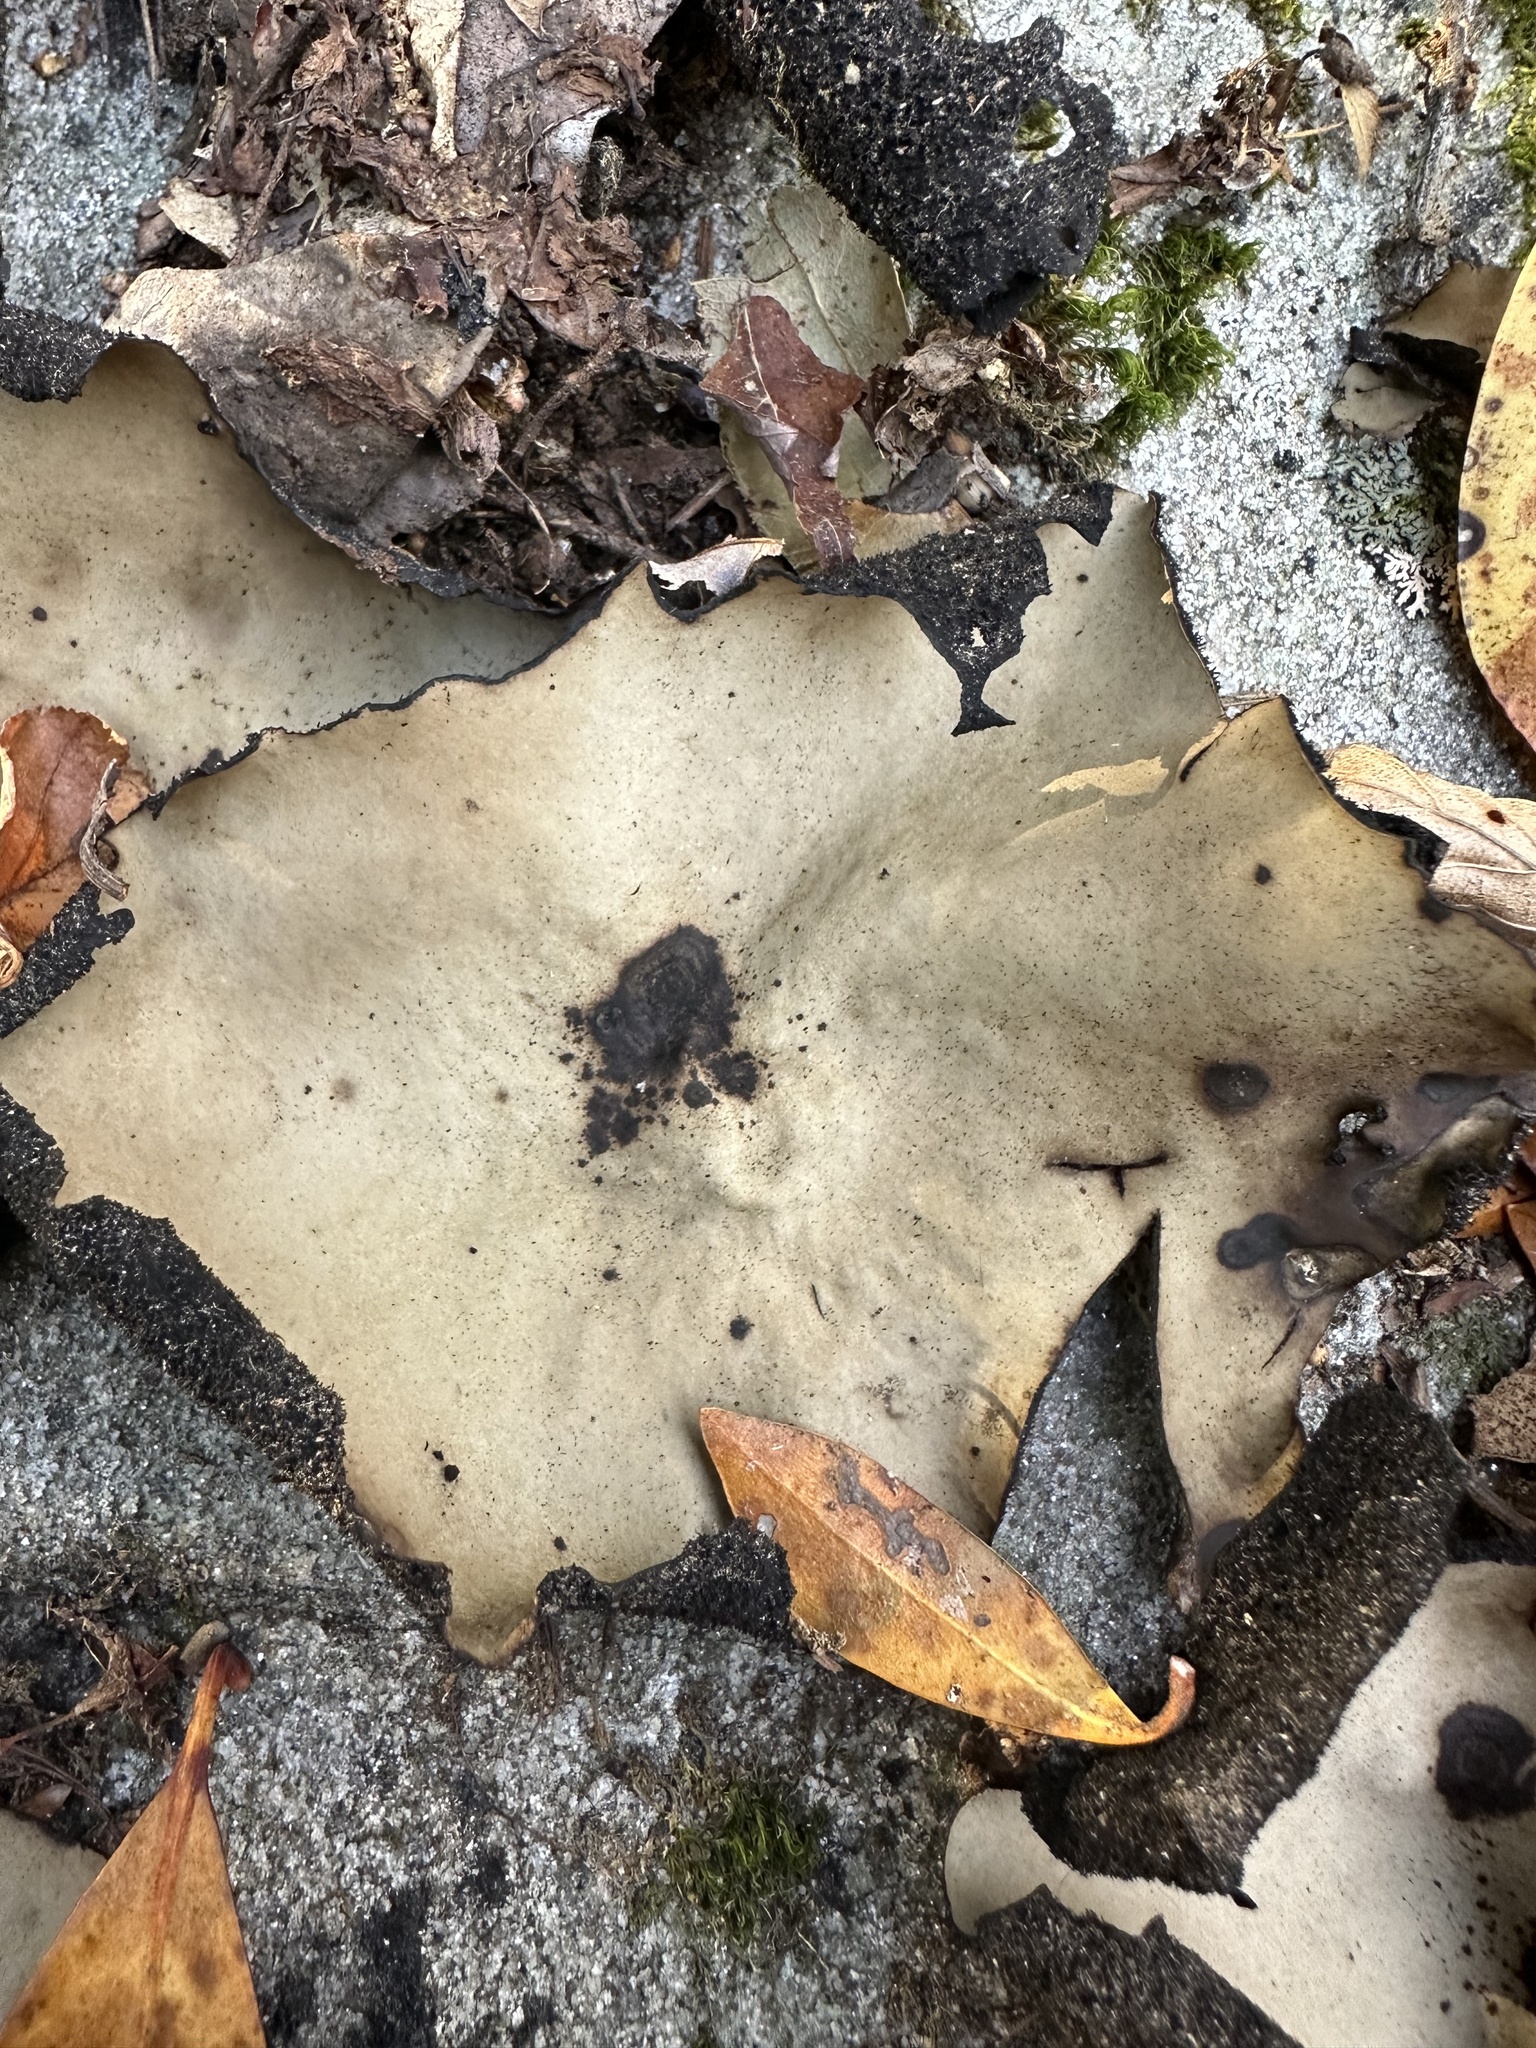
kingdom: Fungi
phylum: Ascomycota
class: Lecanoromycetes
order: Umbilicariales
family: Umbilicariaceae
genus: Umbilicaria
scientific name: Umbilicaria mammulata
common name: Smooth rock tripe
